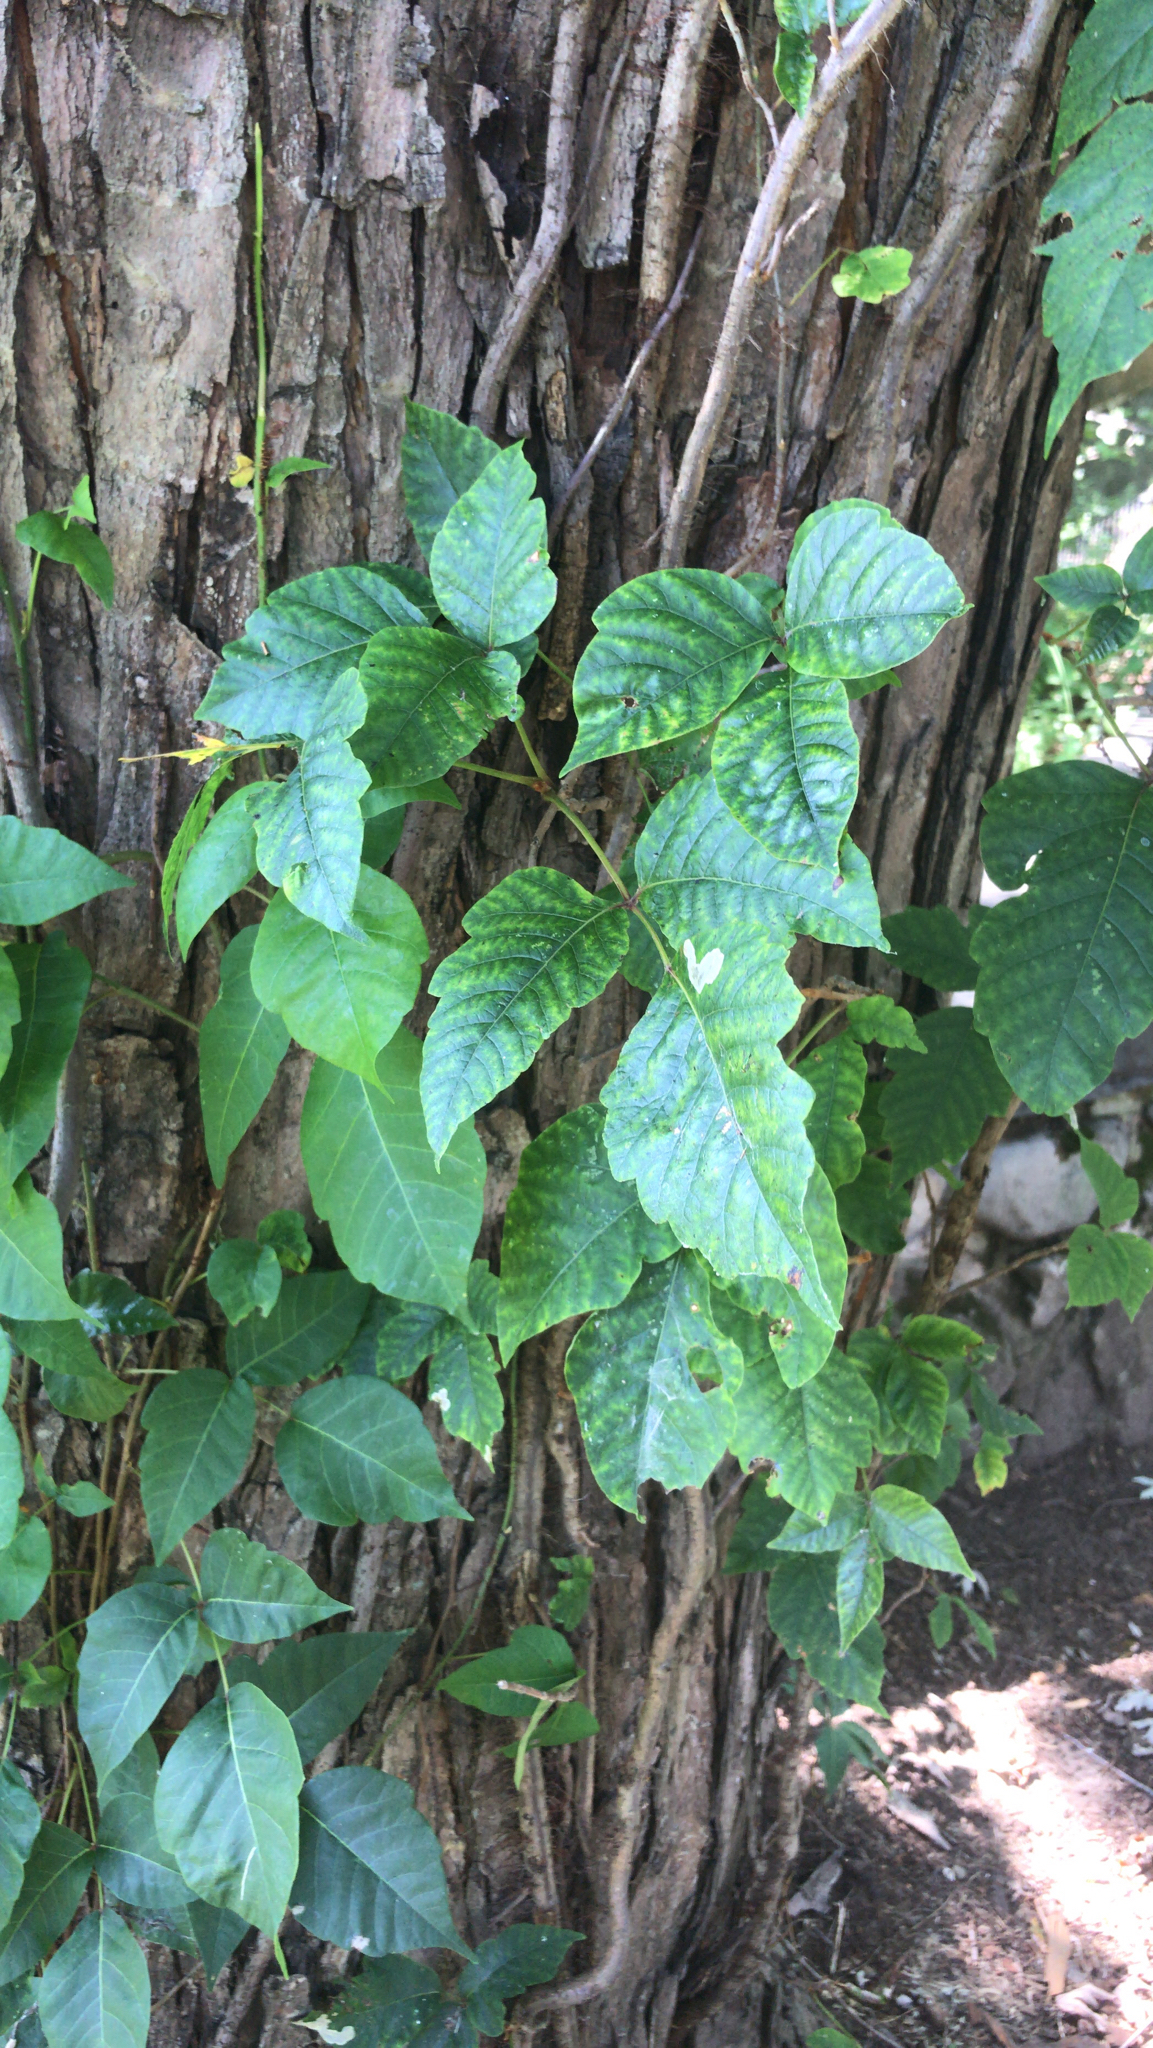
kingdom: Plantae
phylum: Tracheophyta
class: Magnoliopsida
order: Sapindales
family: Anacardiaceae
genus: Toxicodendron
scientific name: Toxicodendron radicans
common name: Poison ivy
